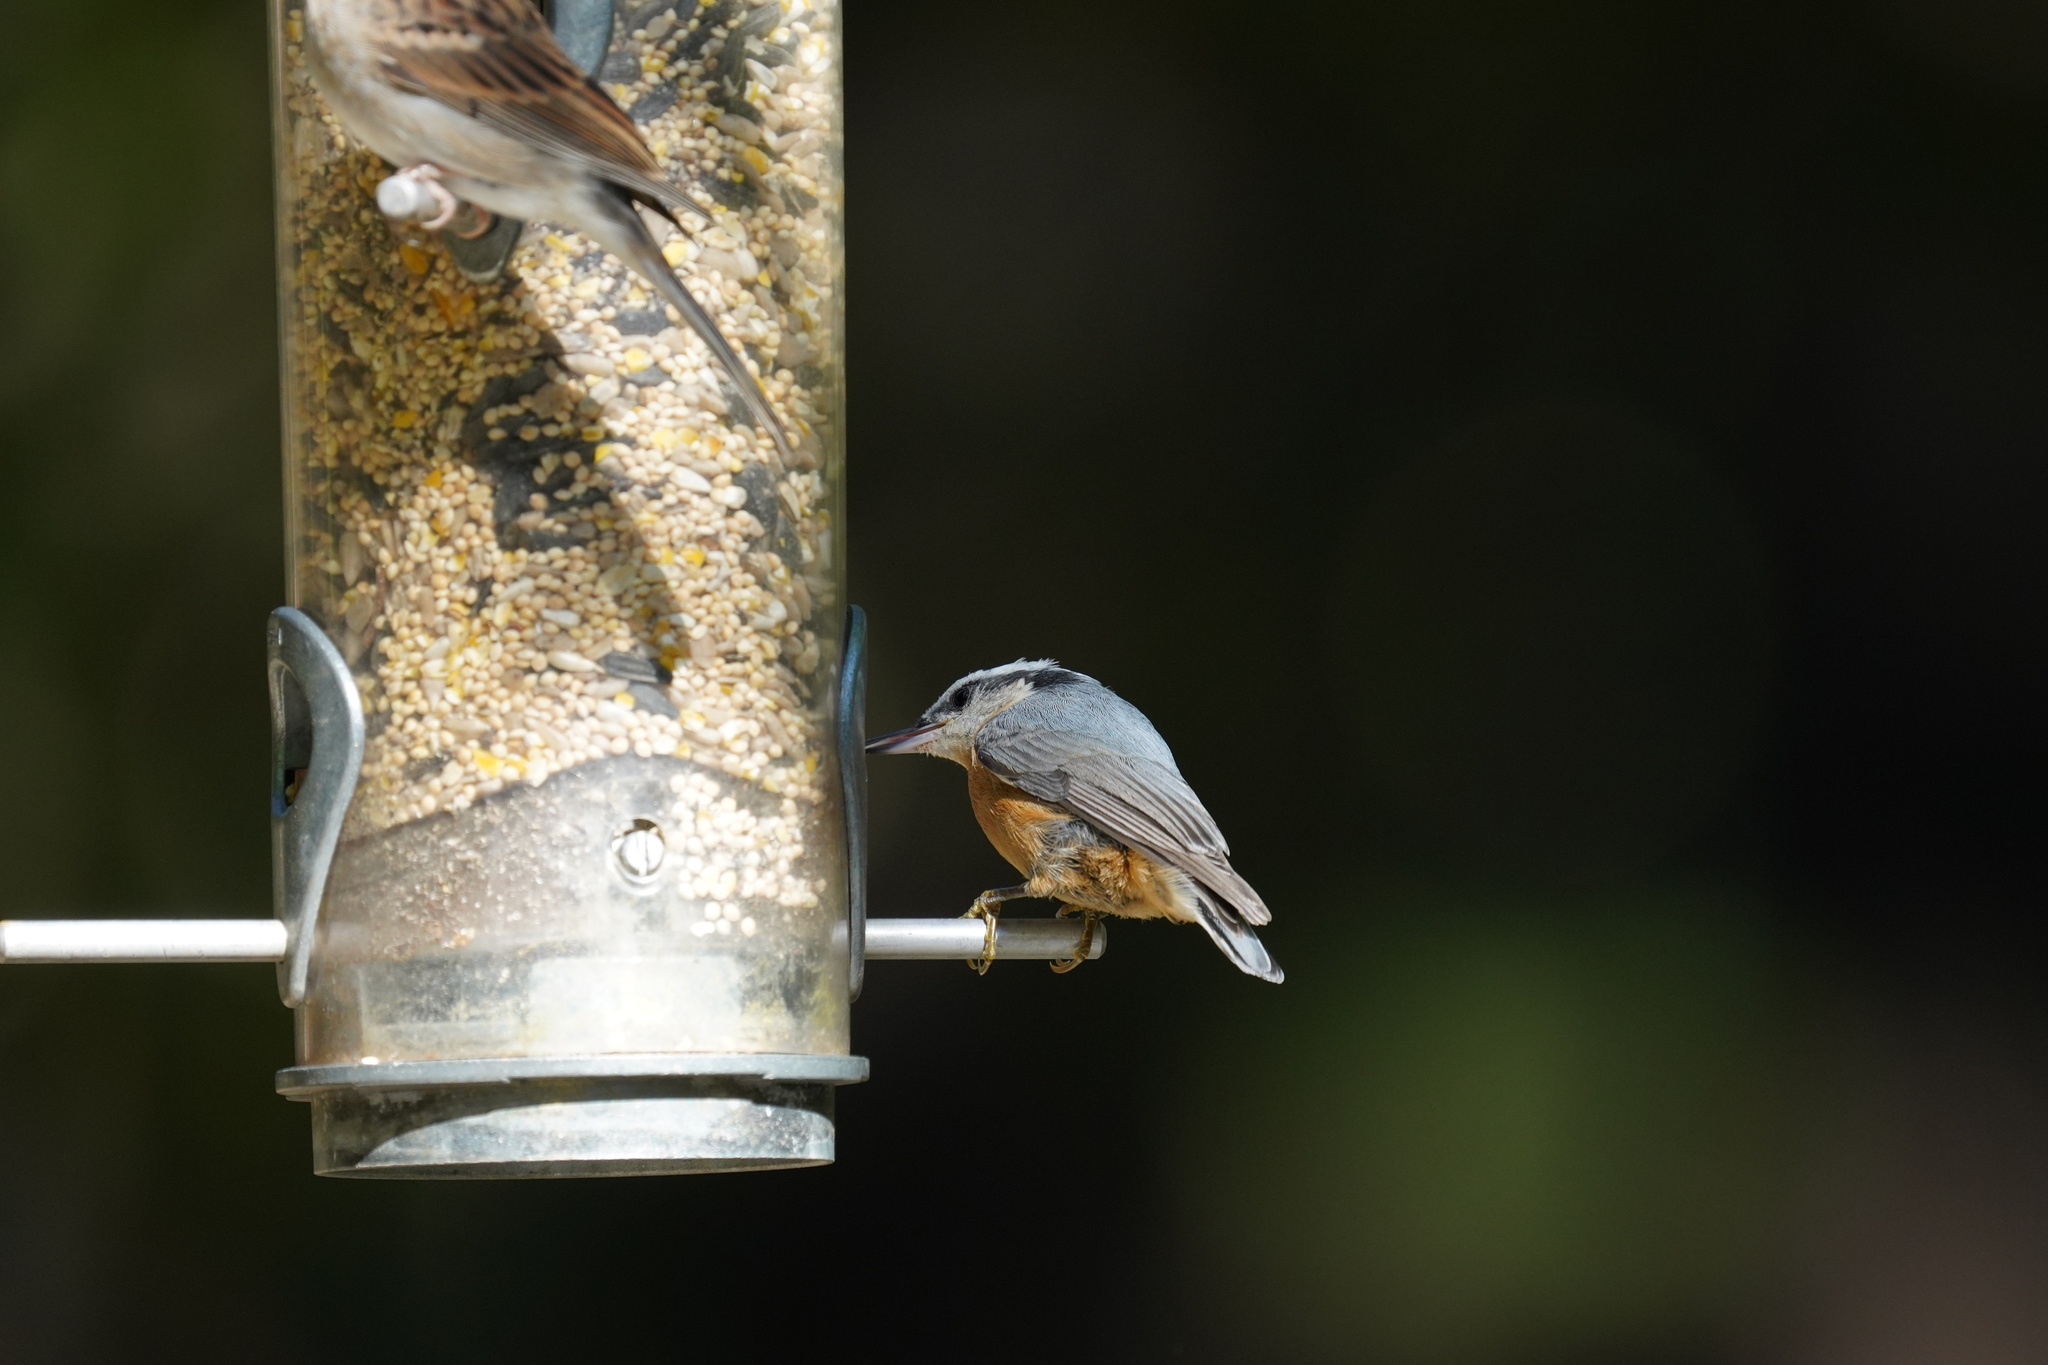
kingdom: Animalia
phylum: Chordata
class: Aves
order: Passeriformes
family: Sittidae
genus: Sitta
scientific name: Sitta canadensis
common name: Red-breasted nuthatch
